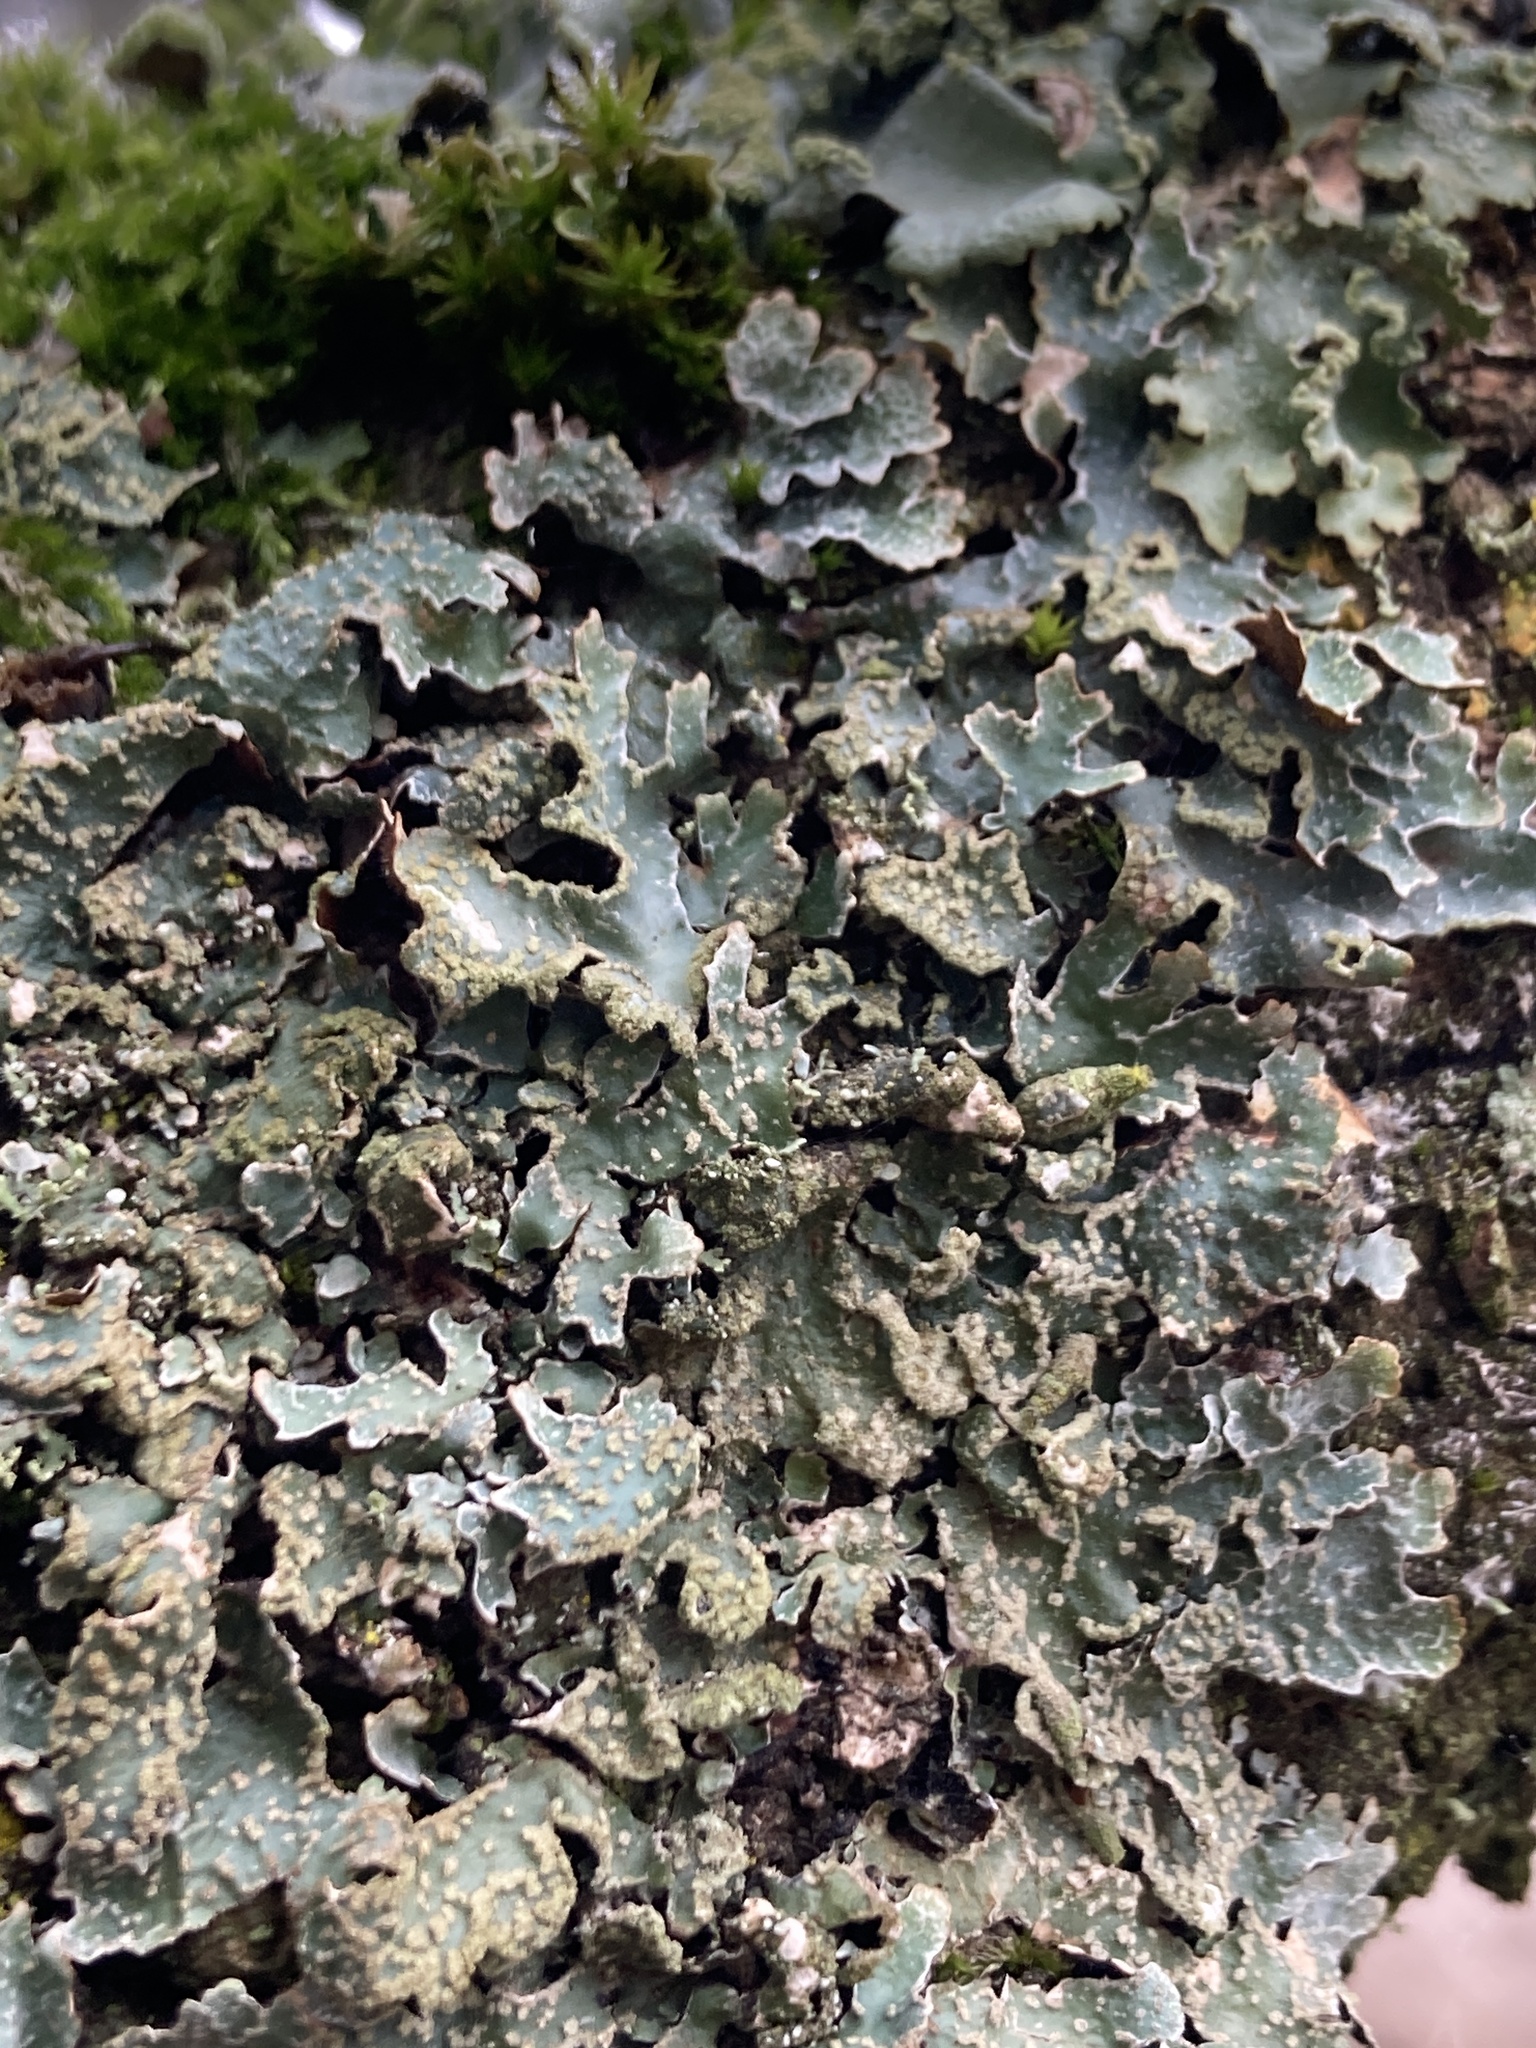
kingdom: Fungi
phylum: Ascomycota
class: Lecanoromycetes
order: Lecanorales
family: Parmeliaceae
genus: Parmelia
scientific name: Parmelia sulcata
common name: Netted shield lichen
